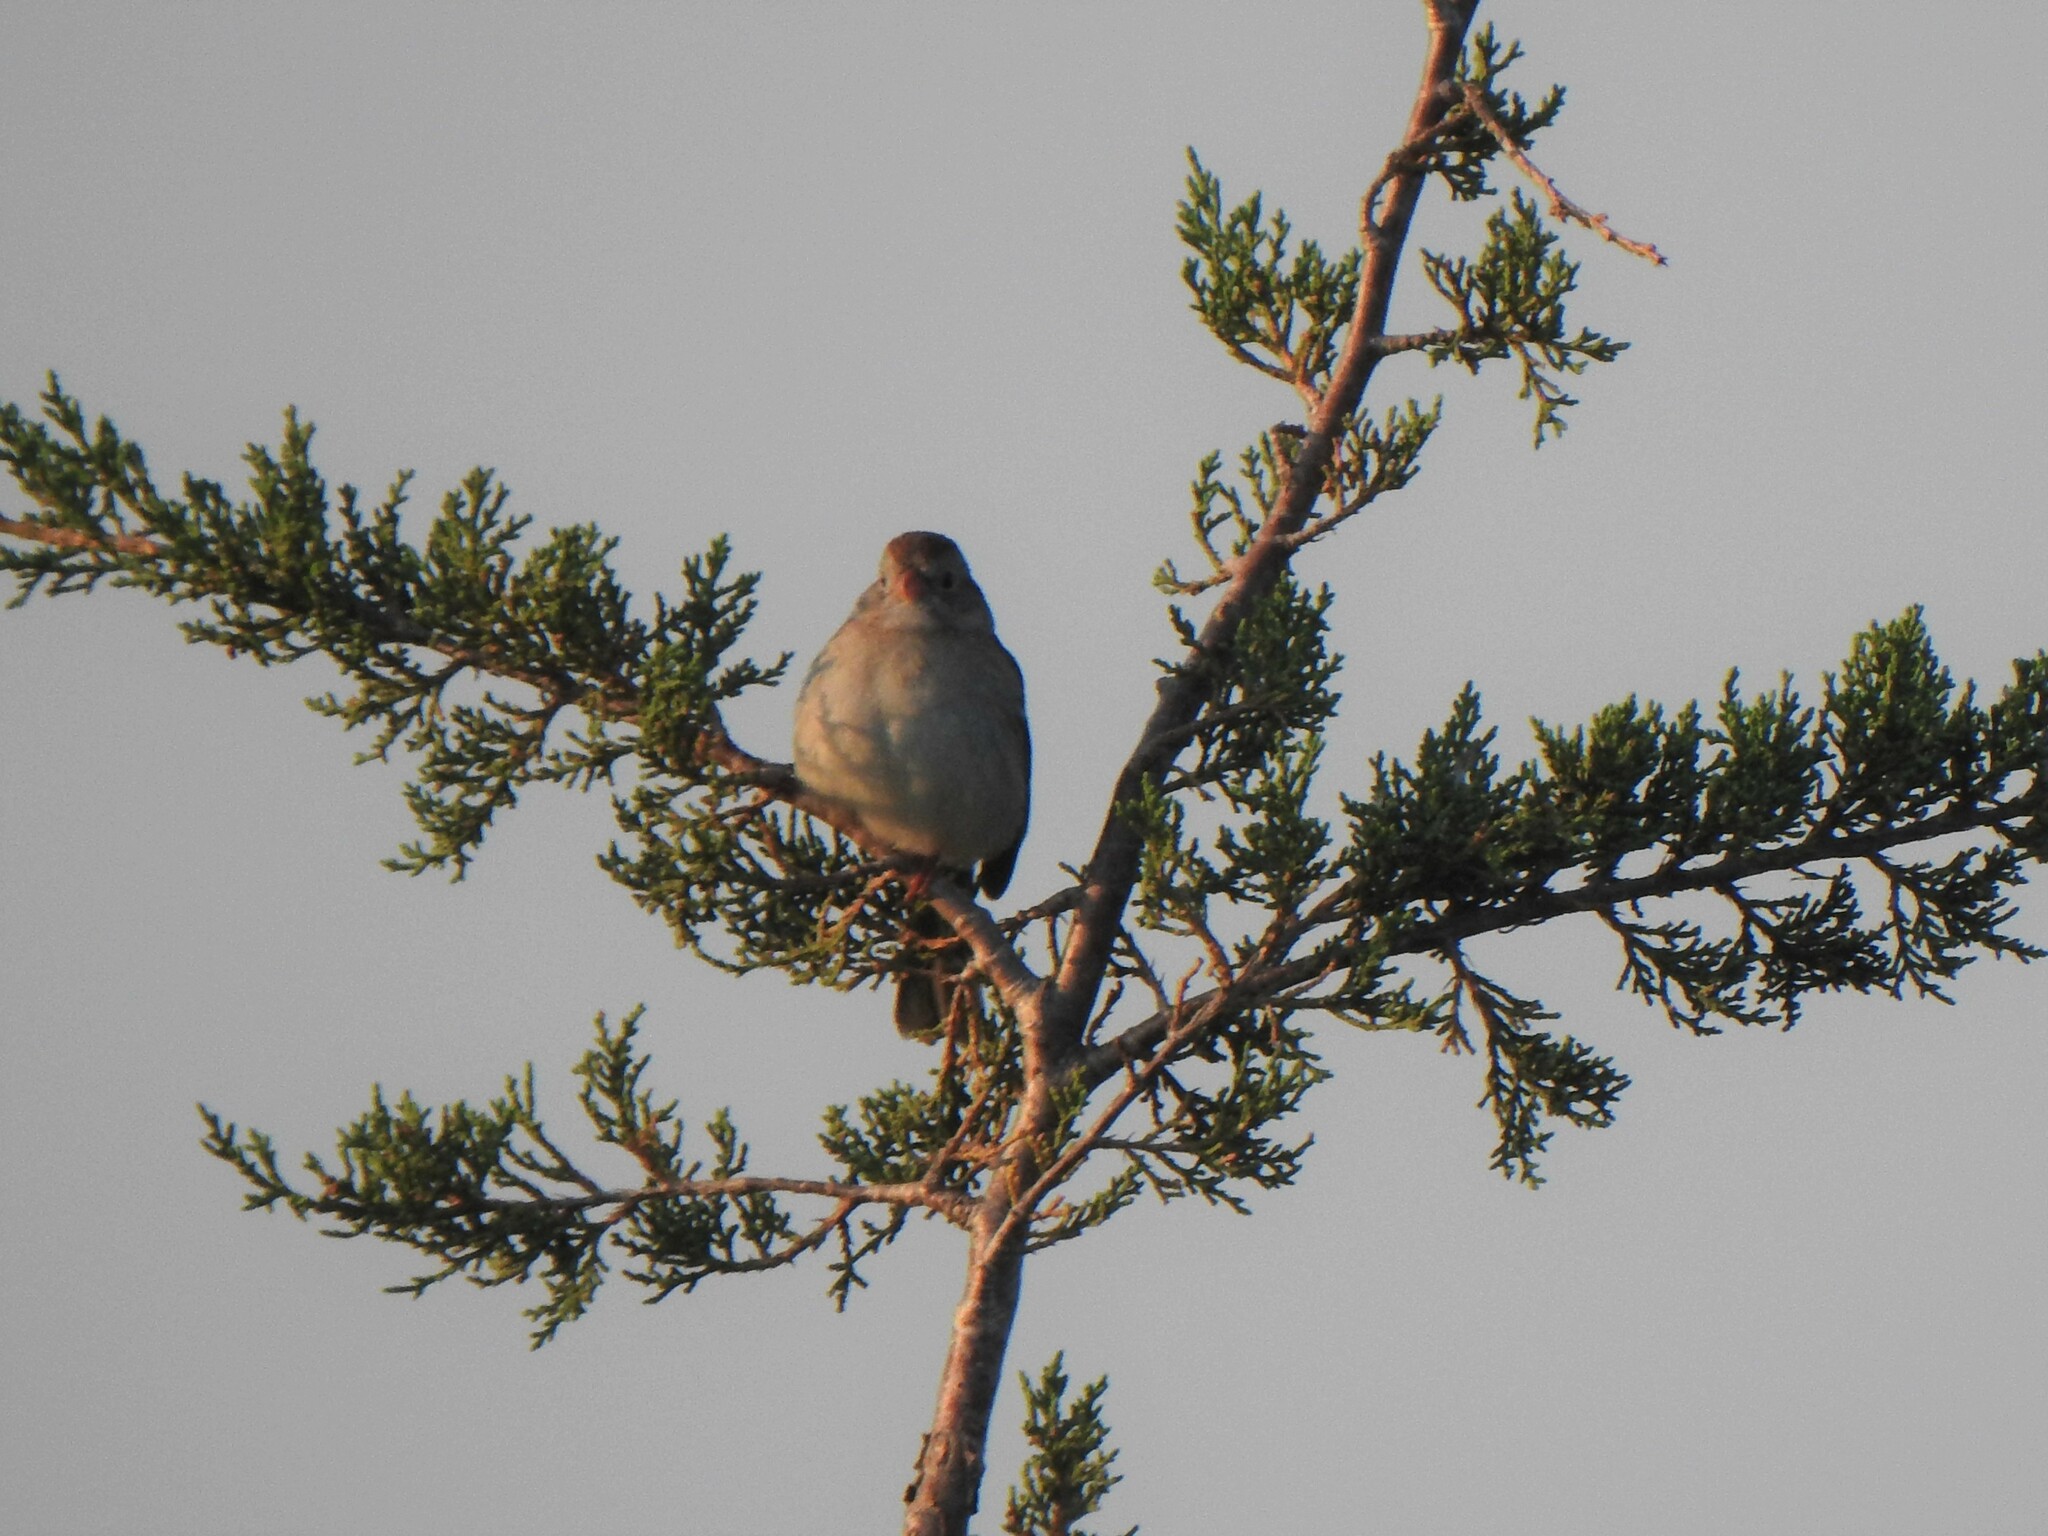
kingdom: Animalia
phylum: Chordata
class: Aves
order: Passeriformes
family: Passerellidae
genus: Spizella
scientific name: Spizella pusilla
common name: Field sparrow
